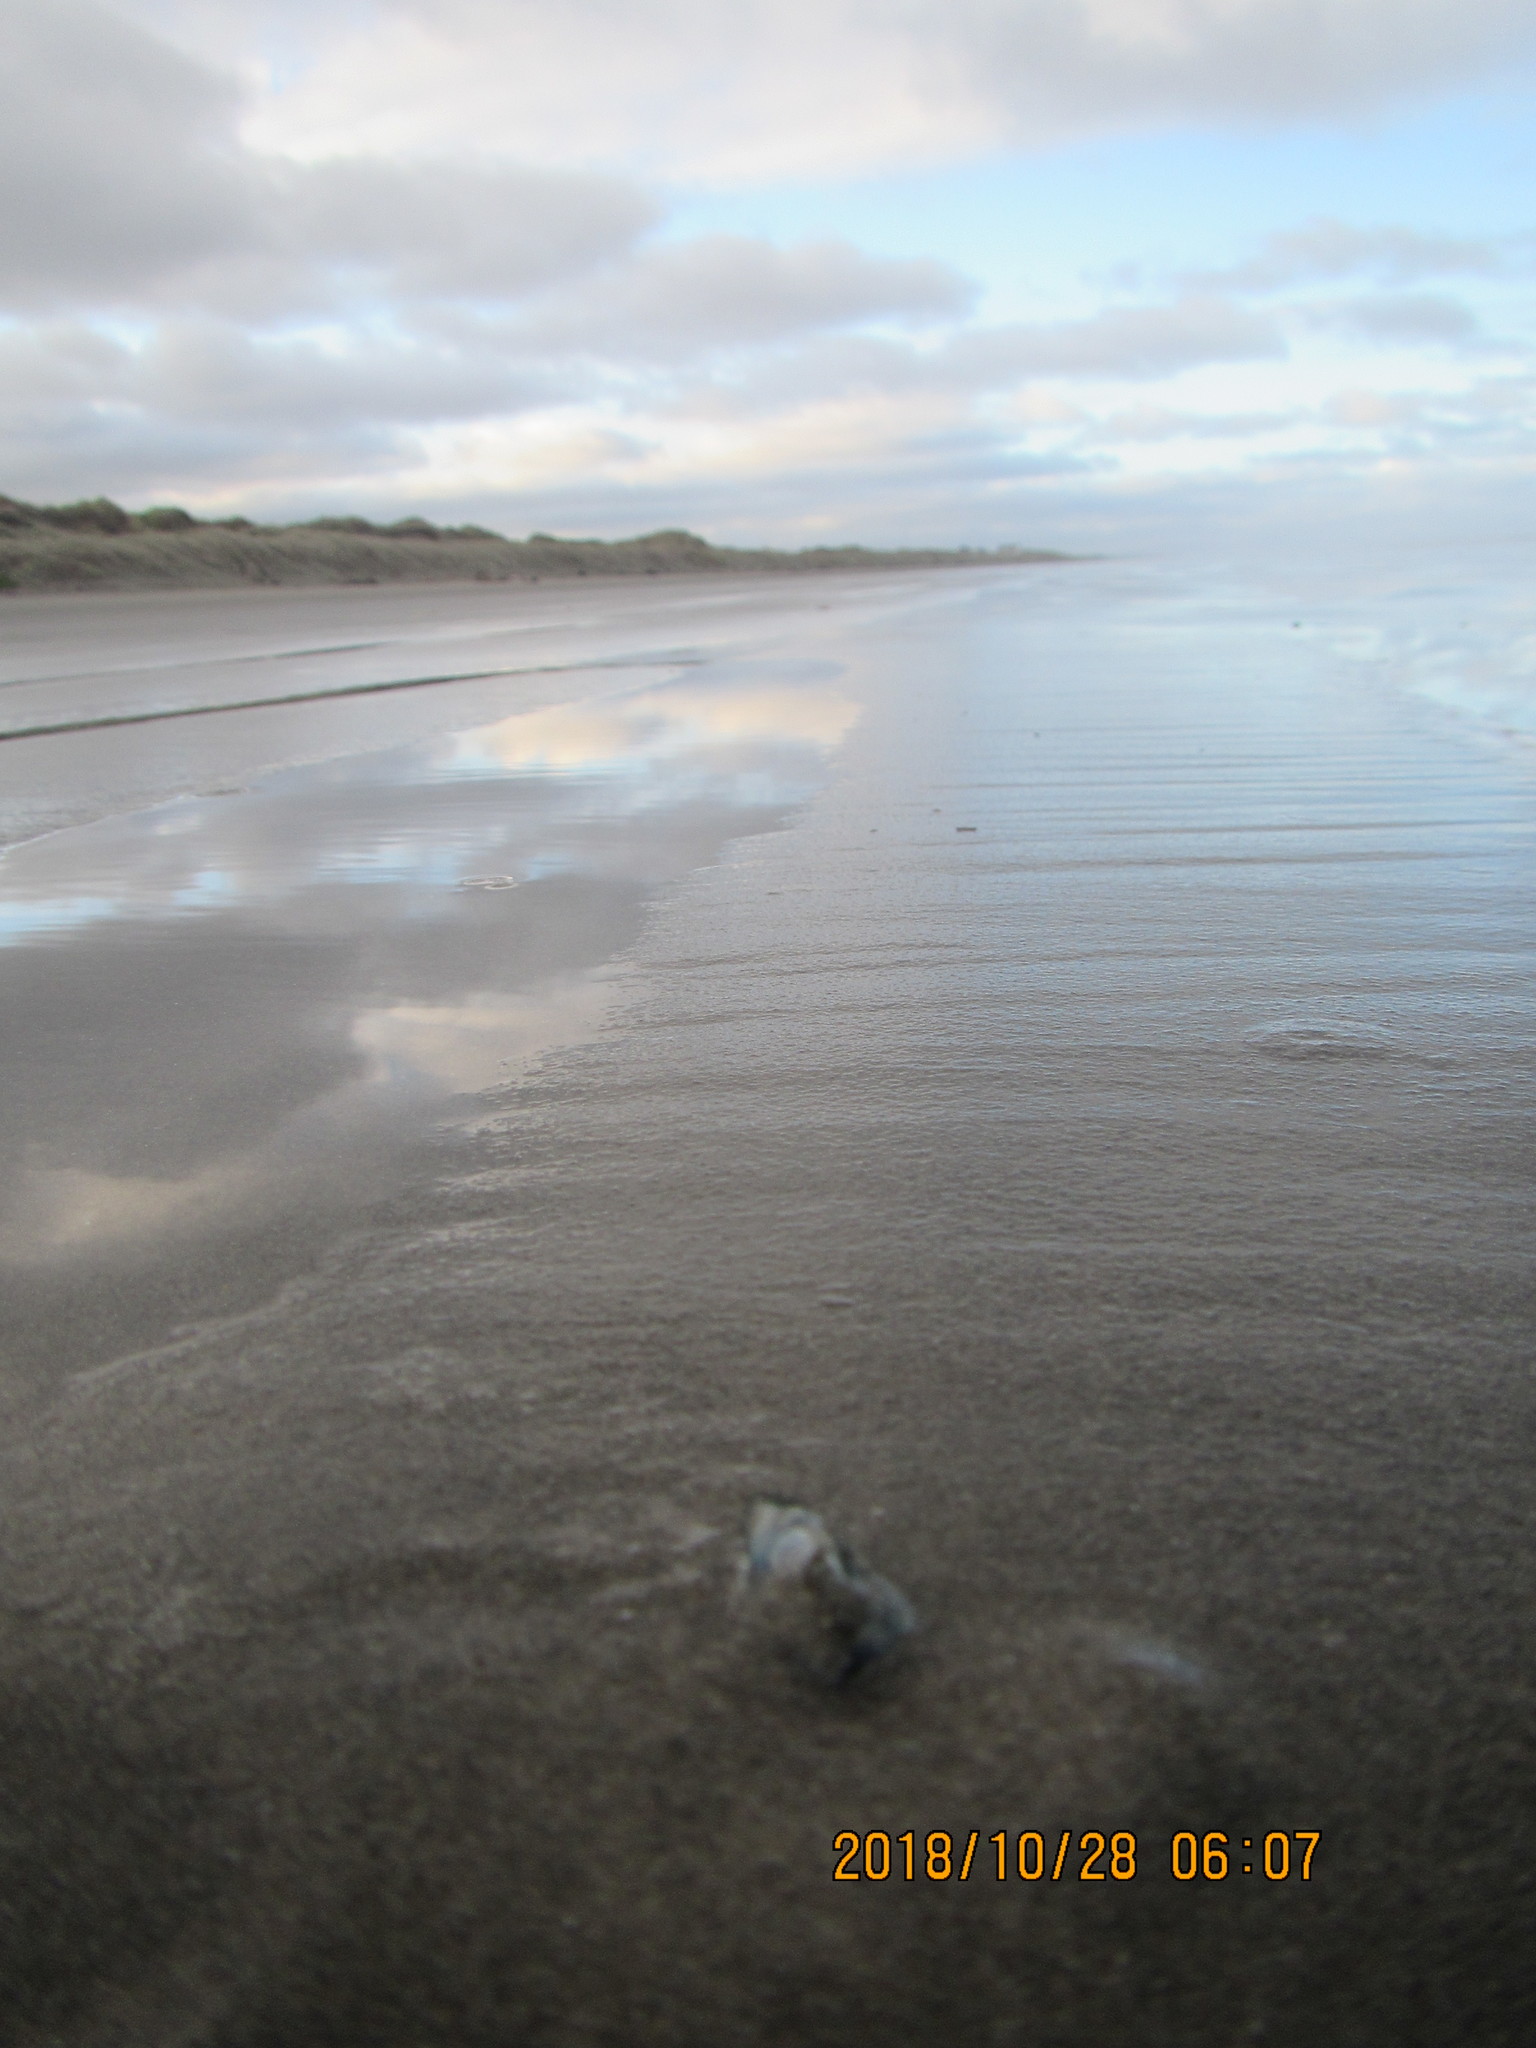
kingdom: Animalia
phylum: Cnidaria
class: Hydrozoa
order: Anthoathecata
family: Porpitidae
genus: Velella
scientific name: Velella velella
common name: By-the-wind-sailor
